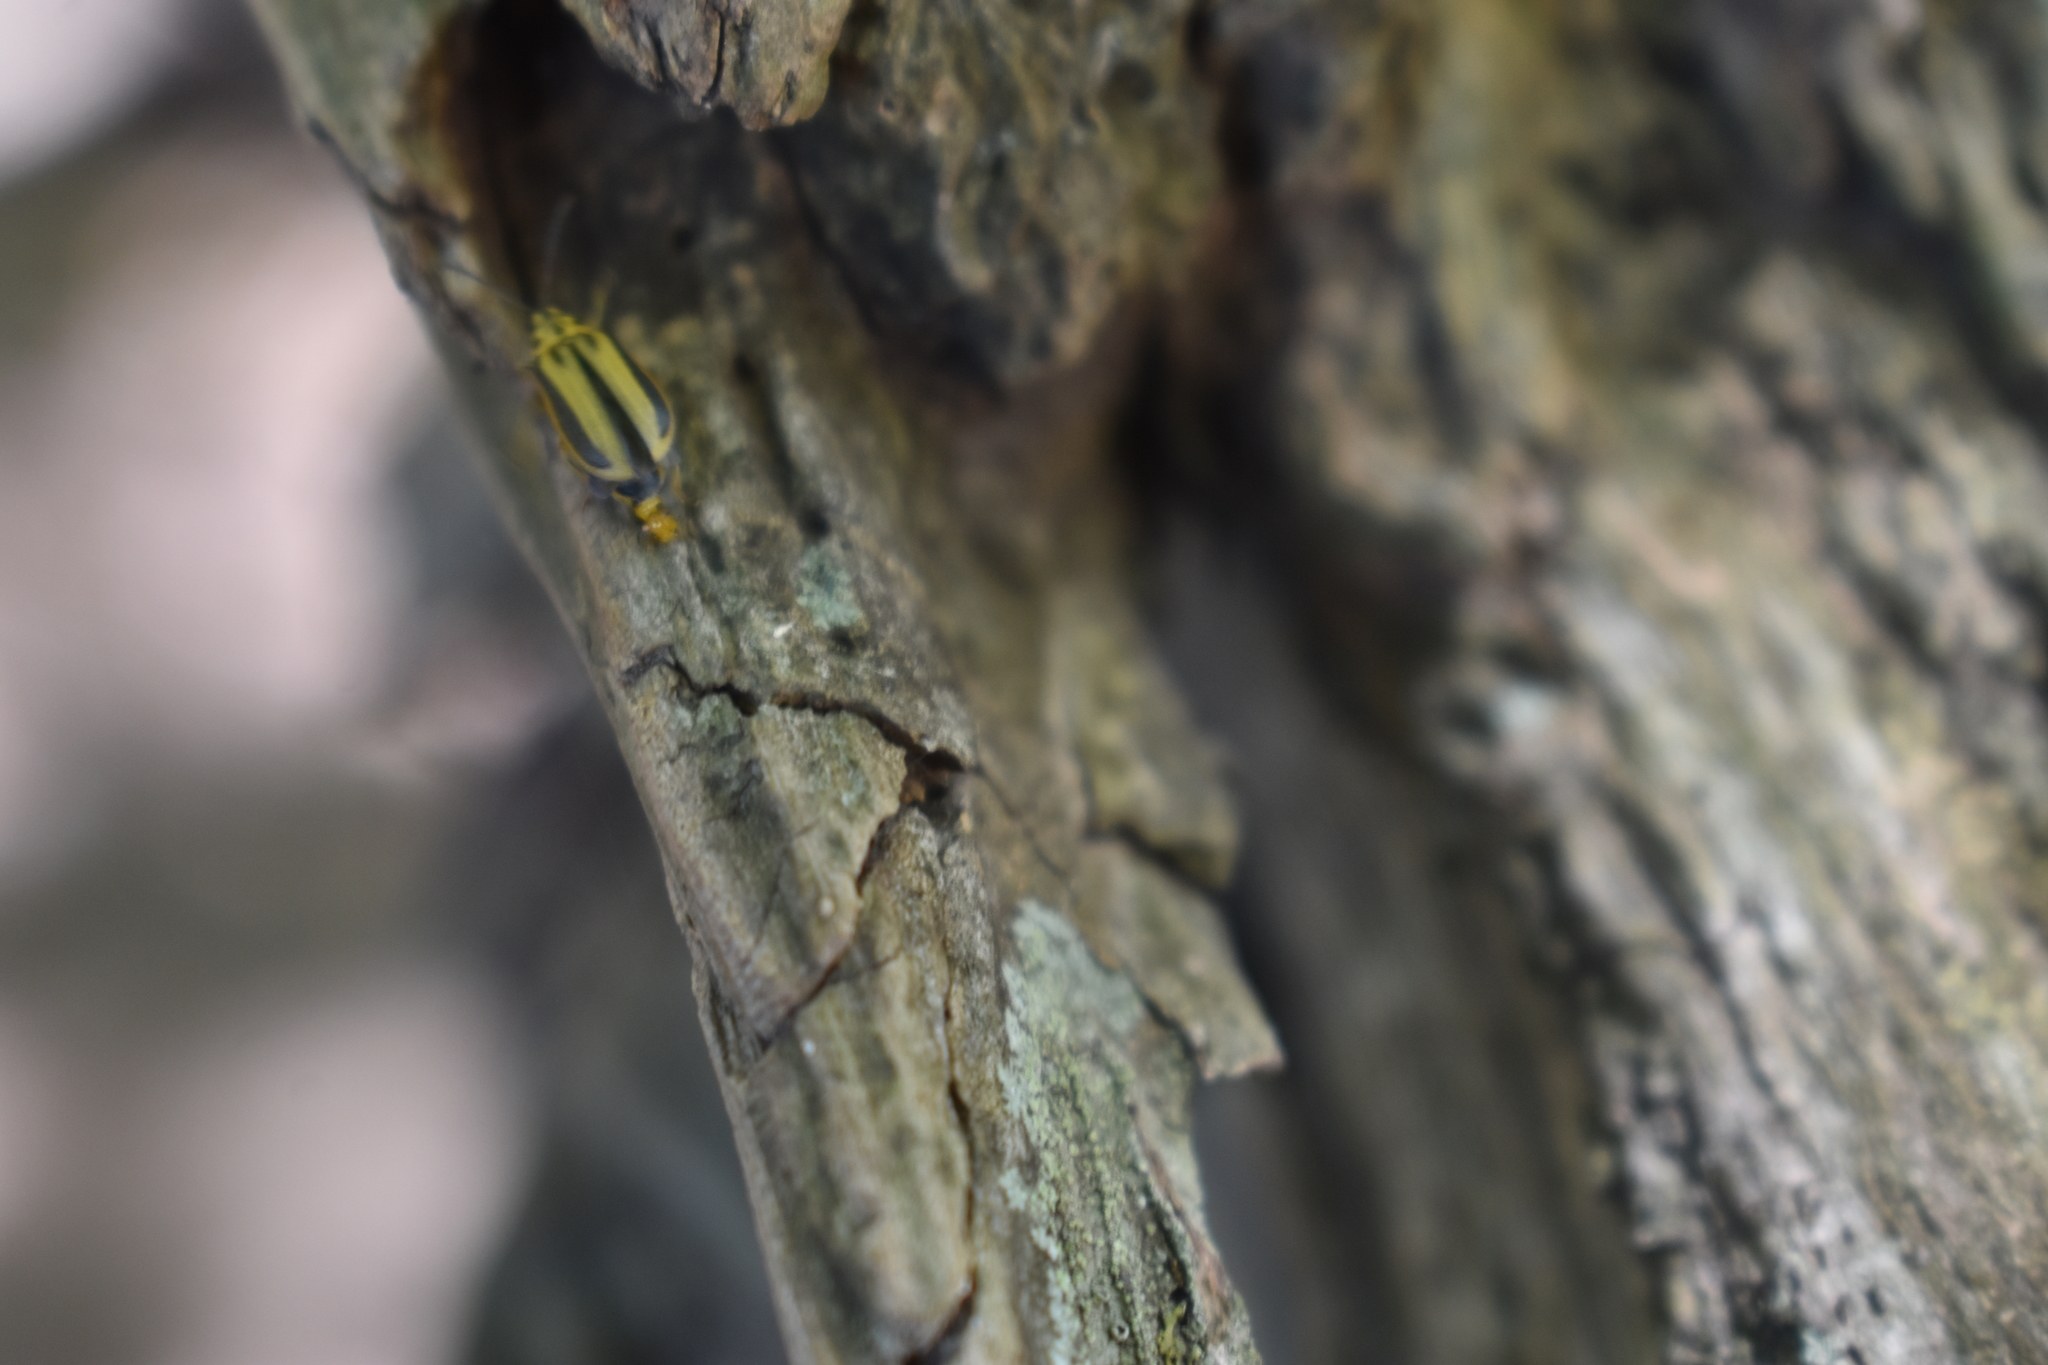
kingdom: Animalia
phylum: Arthropoda
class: Insecta
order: Coleoptera
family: Chrysomelidae
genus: Xanthogaleruca
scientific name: Xanthogaleruca luteola
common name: Elm leaf beetle
